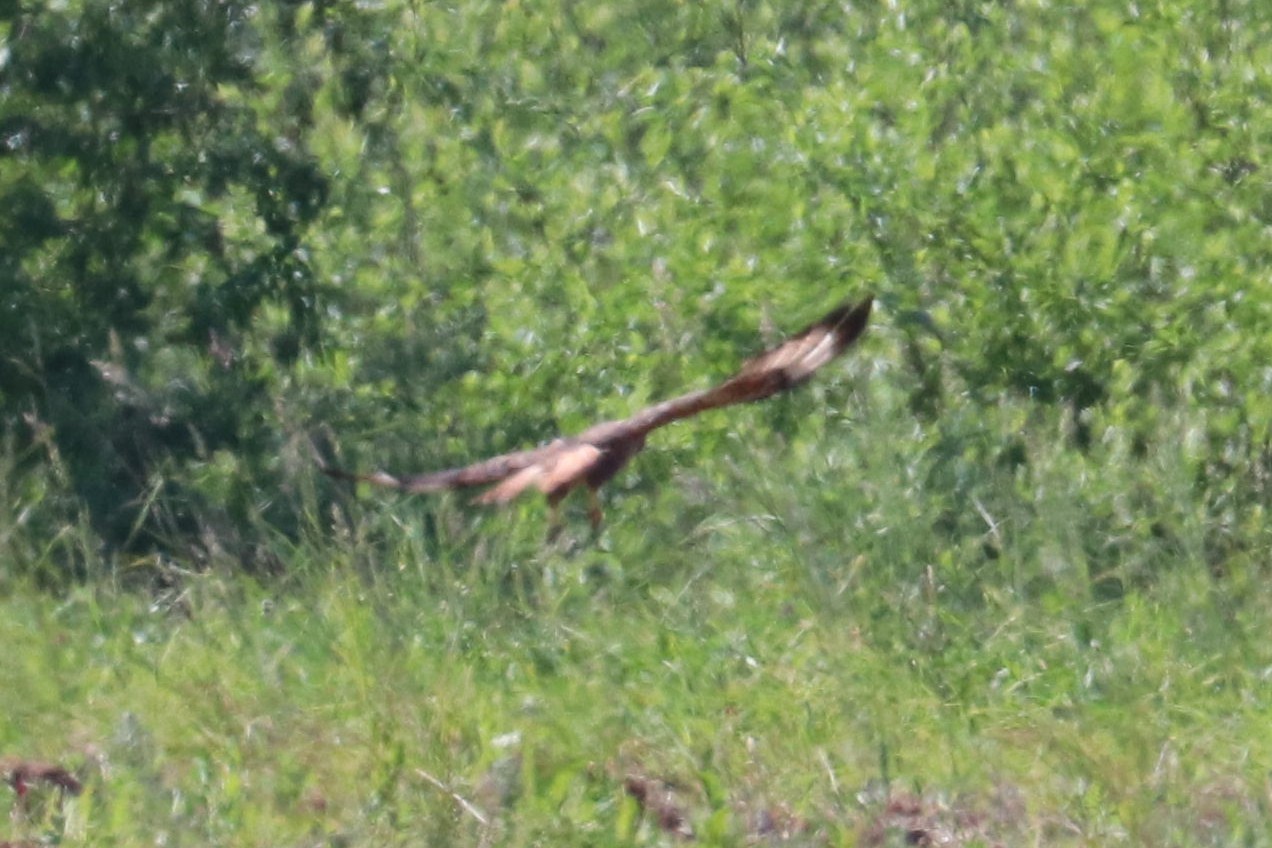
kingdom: Animalia
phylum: Chordata
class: Aves
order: Accipitriformes
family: Accipitridae
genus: Buteo
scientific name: Buteo buteo
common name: Common buzzard
